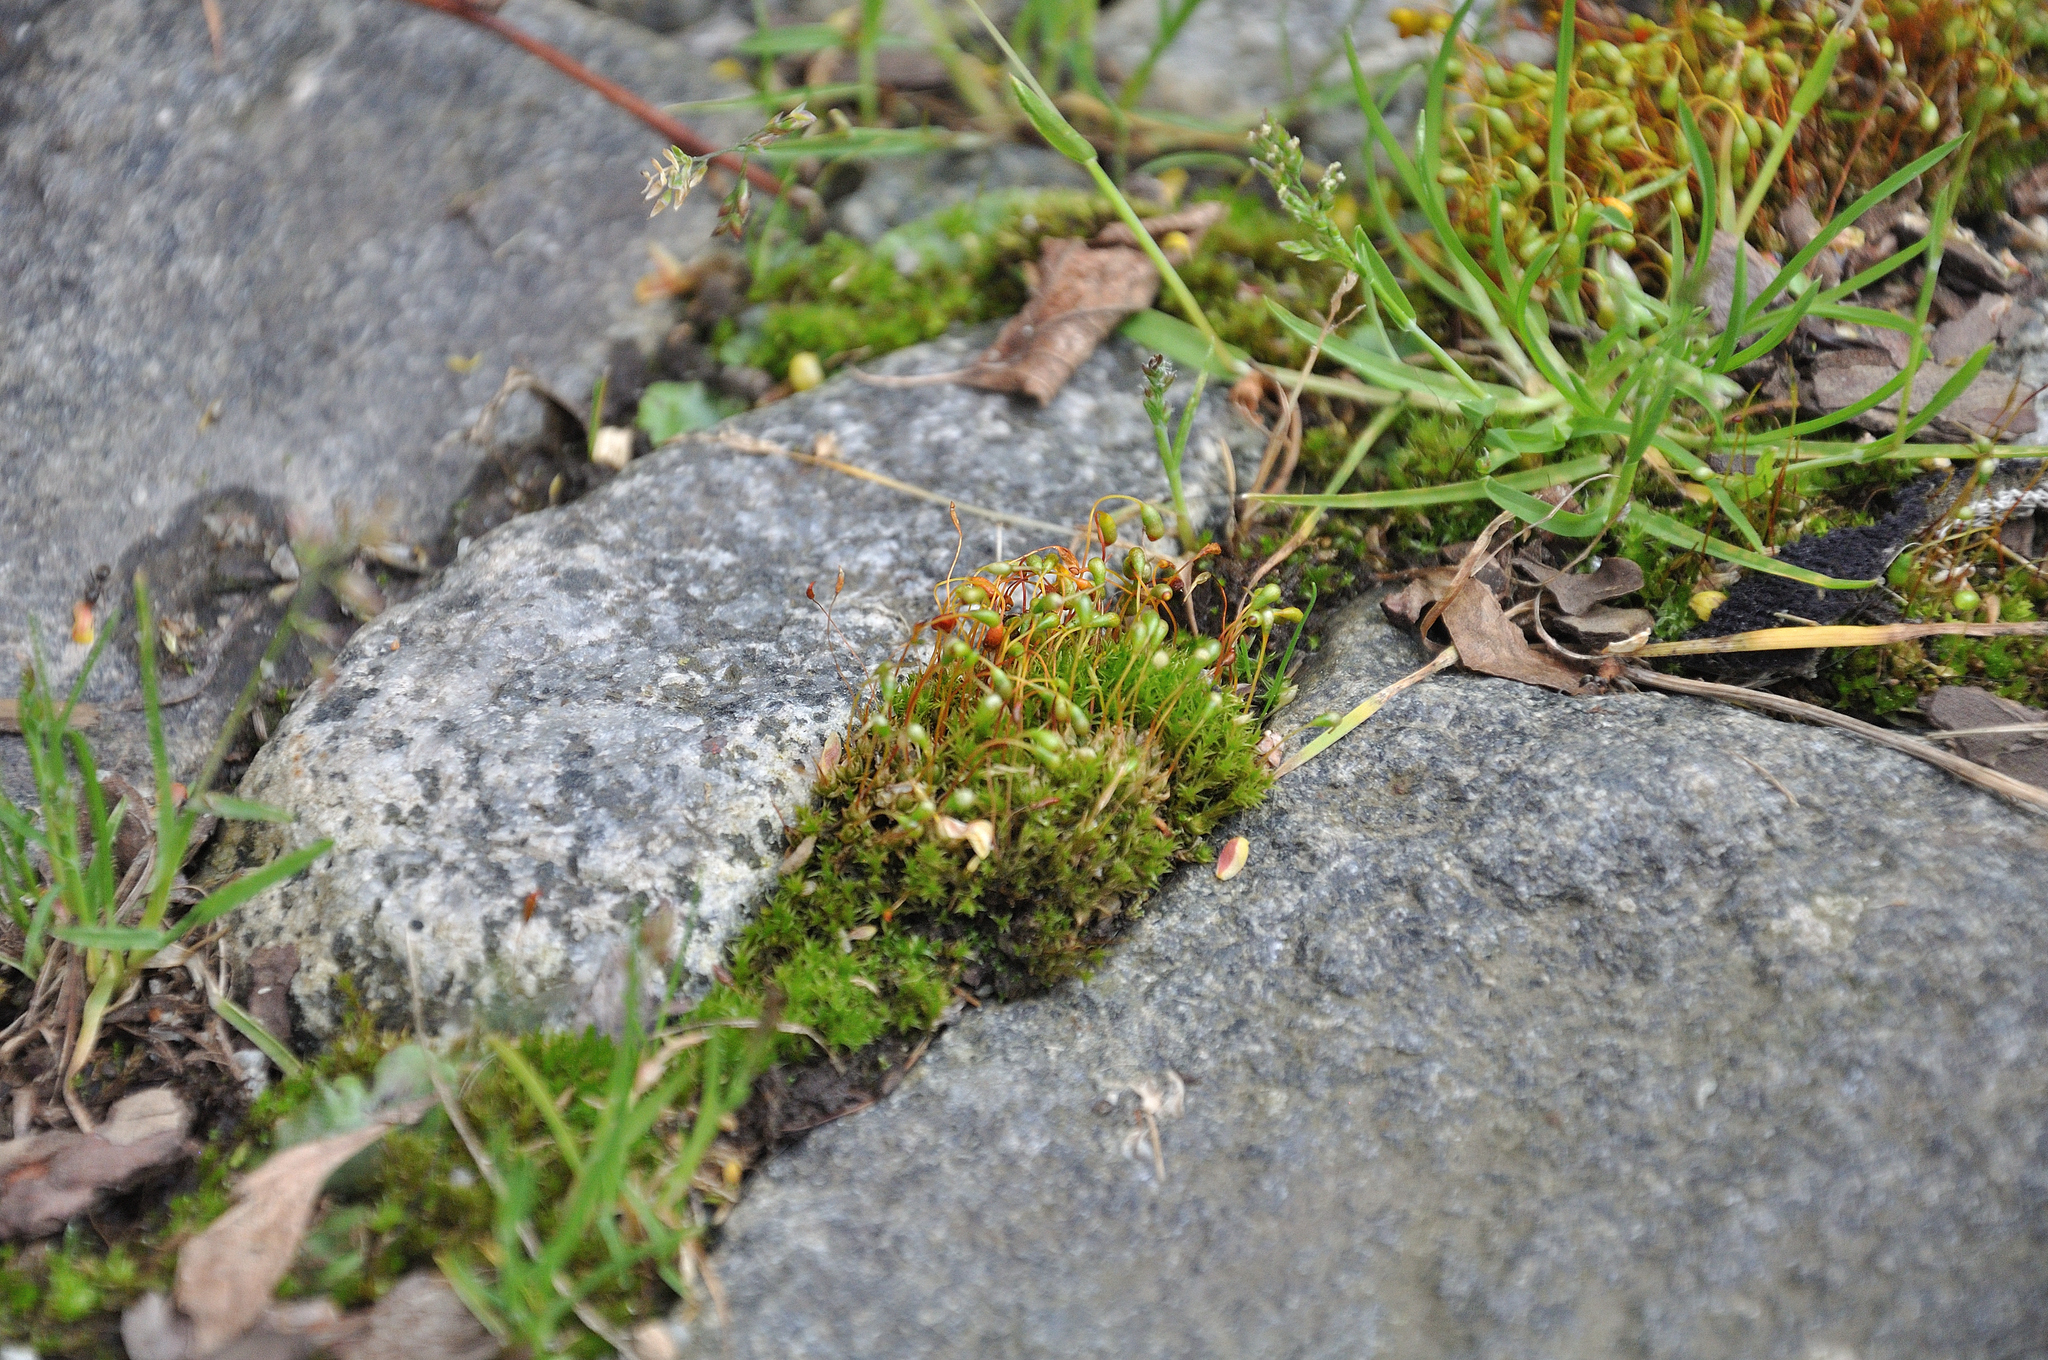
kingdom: Plantae
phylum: Bryophyta
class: Bryopsida
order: Funariales
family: Funariaceae
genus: Funaria
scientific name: Funaria hygrometrica
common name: Common cord moss
